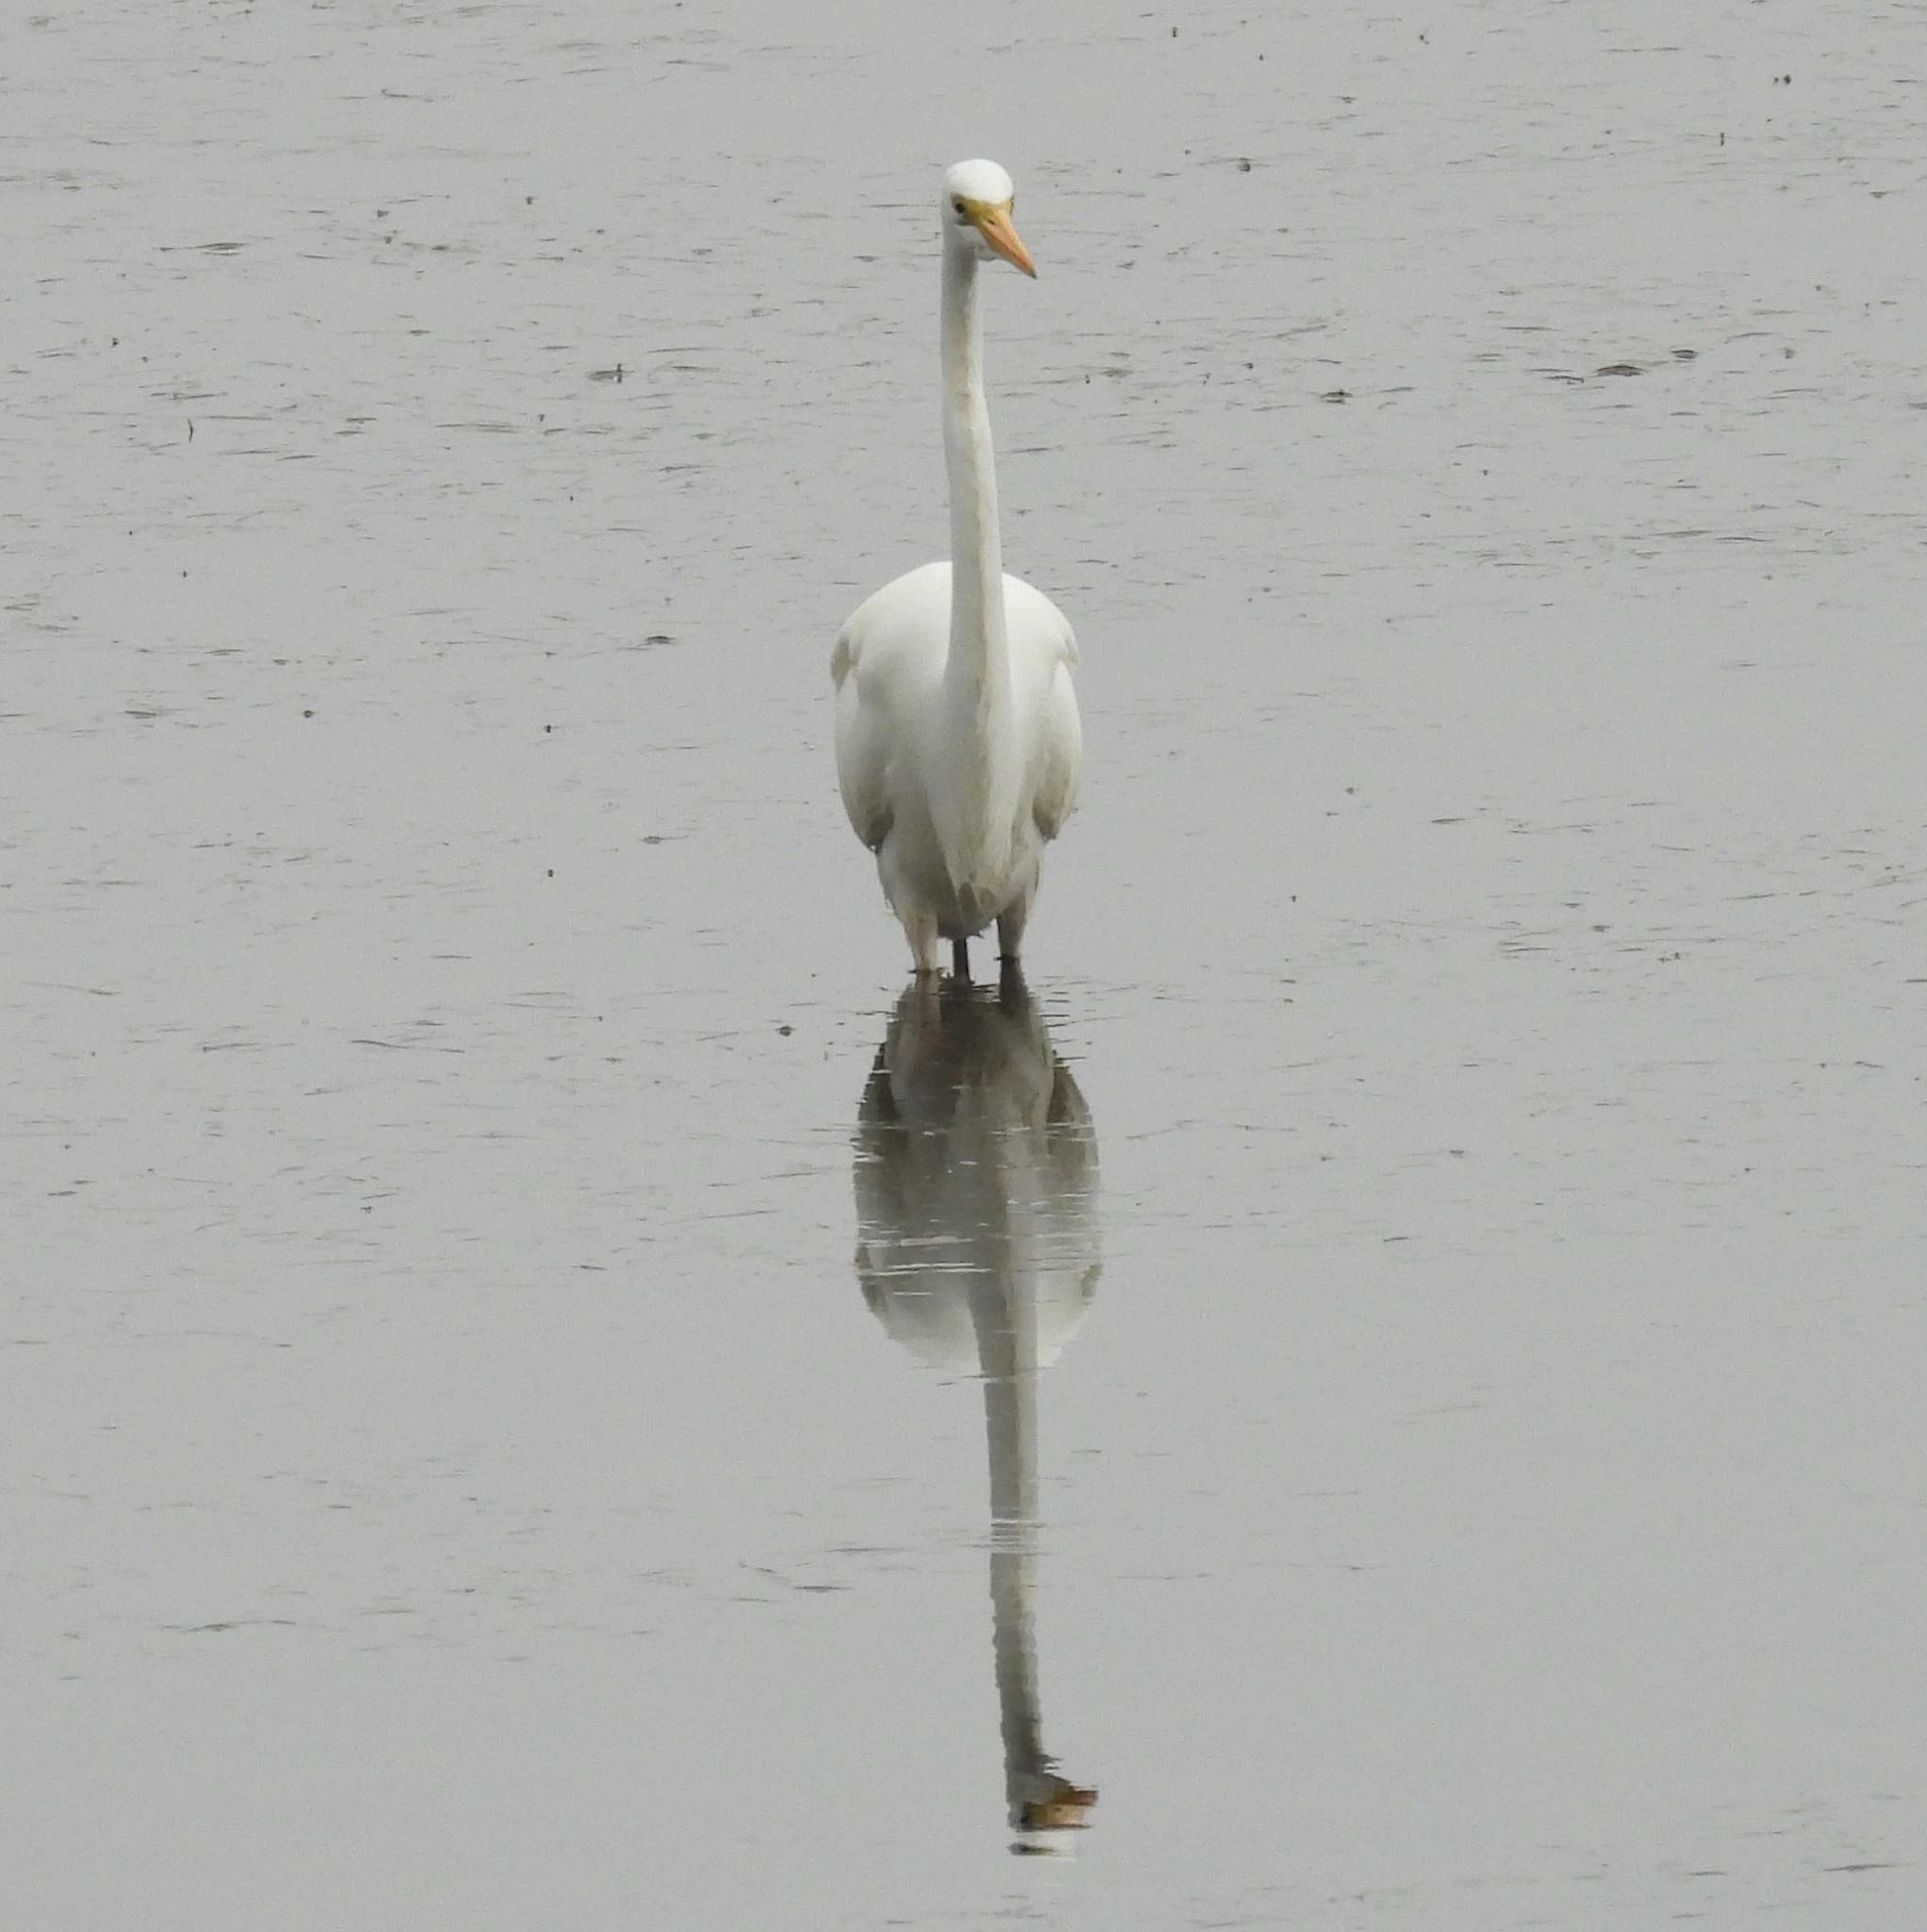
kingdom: Animalia
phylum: Chordata
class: Aves
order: Pelecaniformes
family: Ardeidae
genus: Ardea
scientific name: Ardea alba
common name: Great egret
